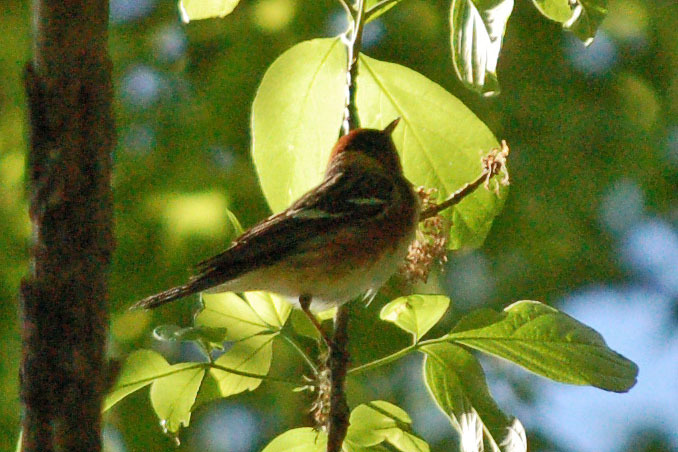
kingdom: Animalia
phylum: Chordata
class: Aves
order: Passeriformes
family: Parulidae
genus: Setophaga
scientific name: Setophaga castanea
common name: Bay-breasted warbler
